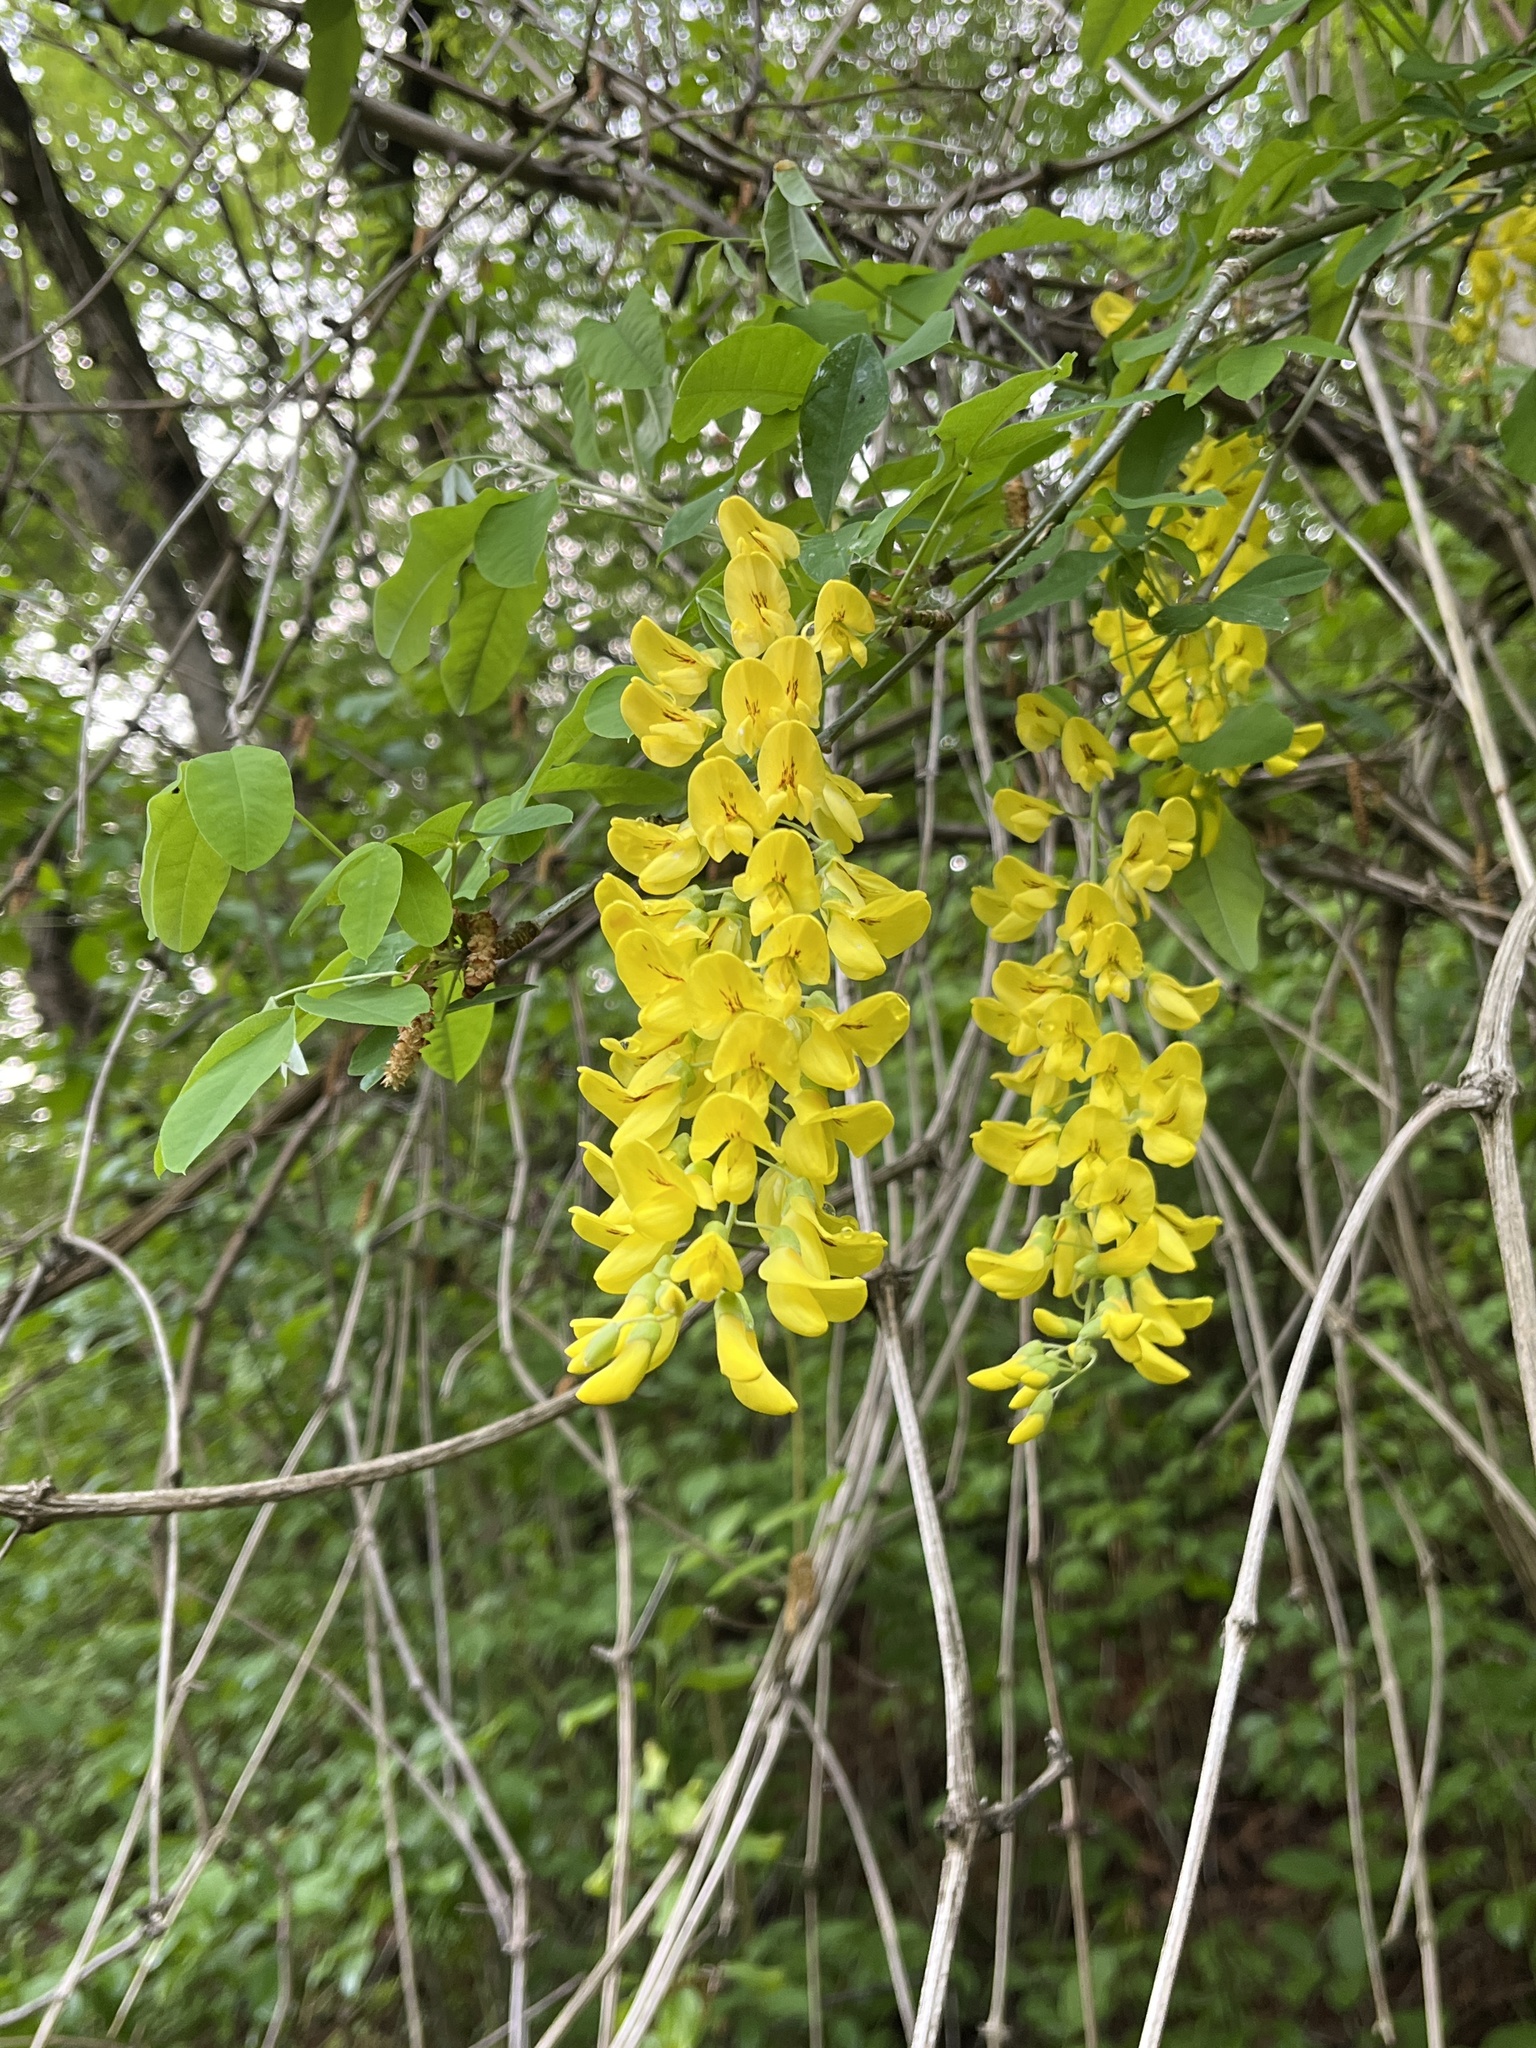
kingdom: Plantae
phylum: Tracheophyta
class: Magnoliopsida
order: Fabales
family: Fabaceae
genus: Laburnum
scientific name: Laburnum alpinum
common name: Scottish laburnum
